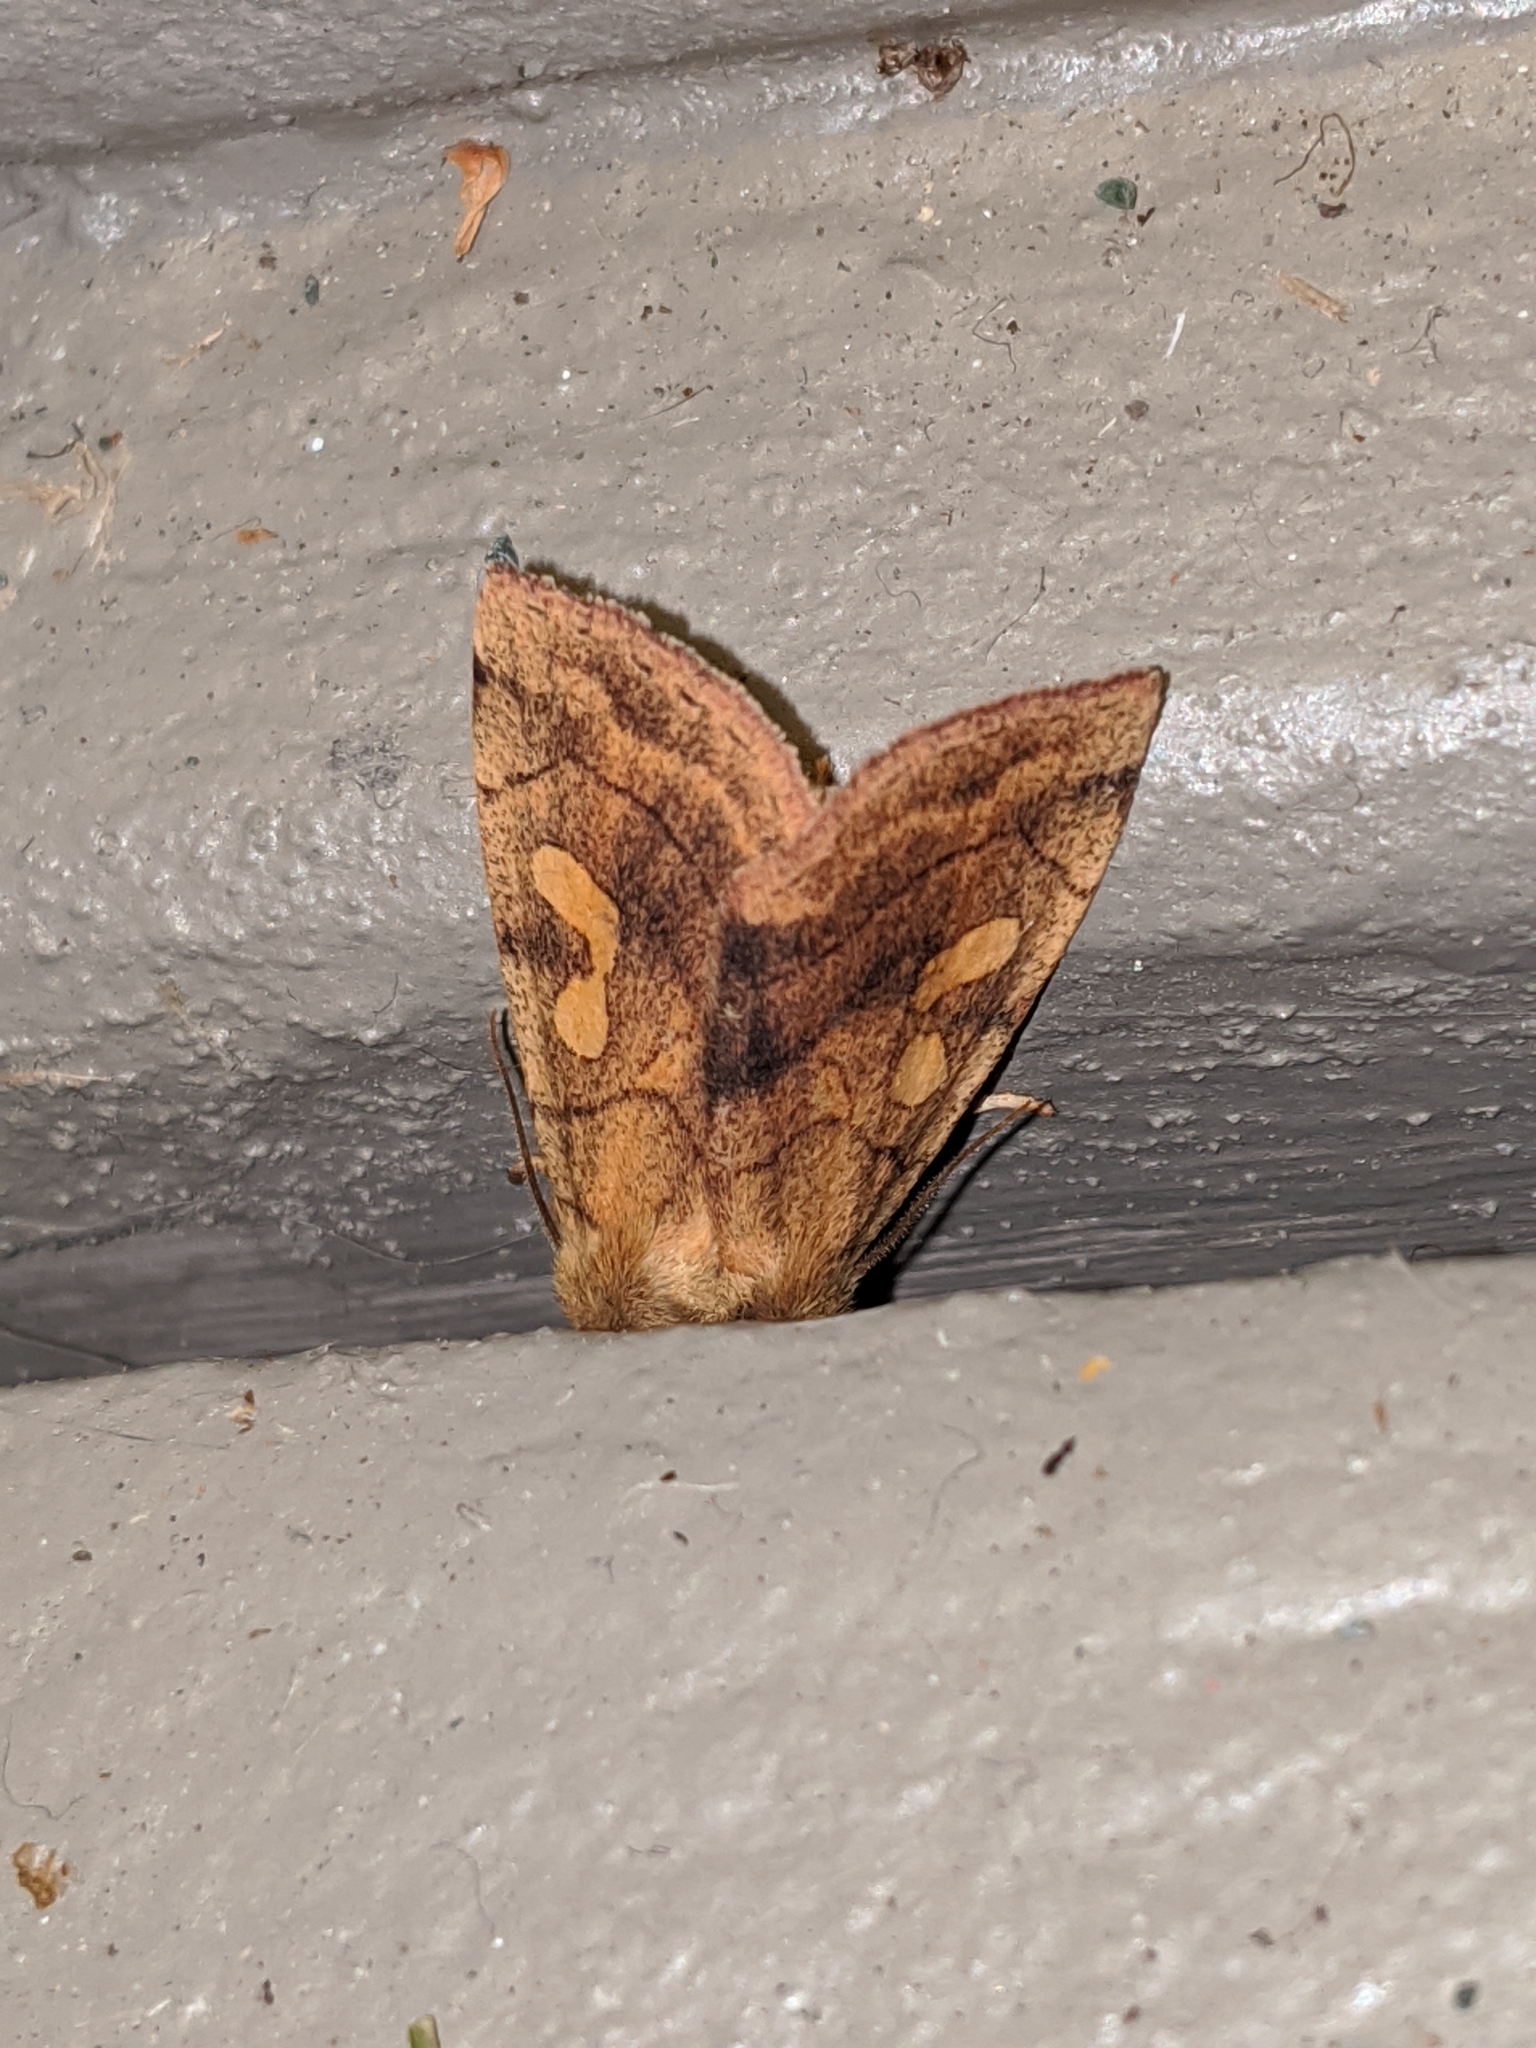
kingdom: Animalia
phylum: Arthropoda
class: Insecta
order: Lepidoptera
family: Noctuidae
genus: Enargia
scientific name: Enargia decolor
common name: Aspen twoleaf tier moth
